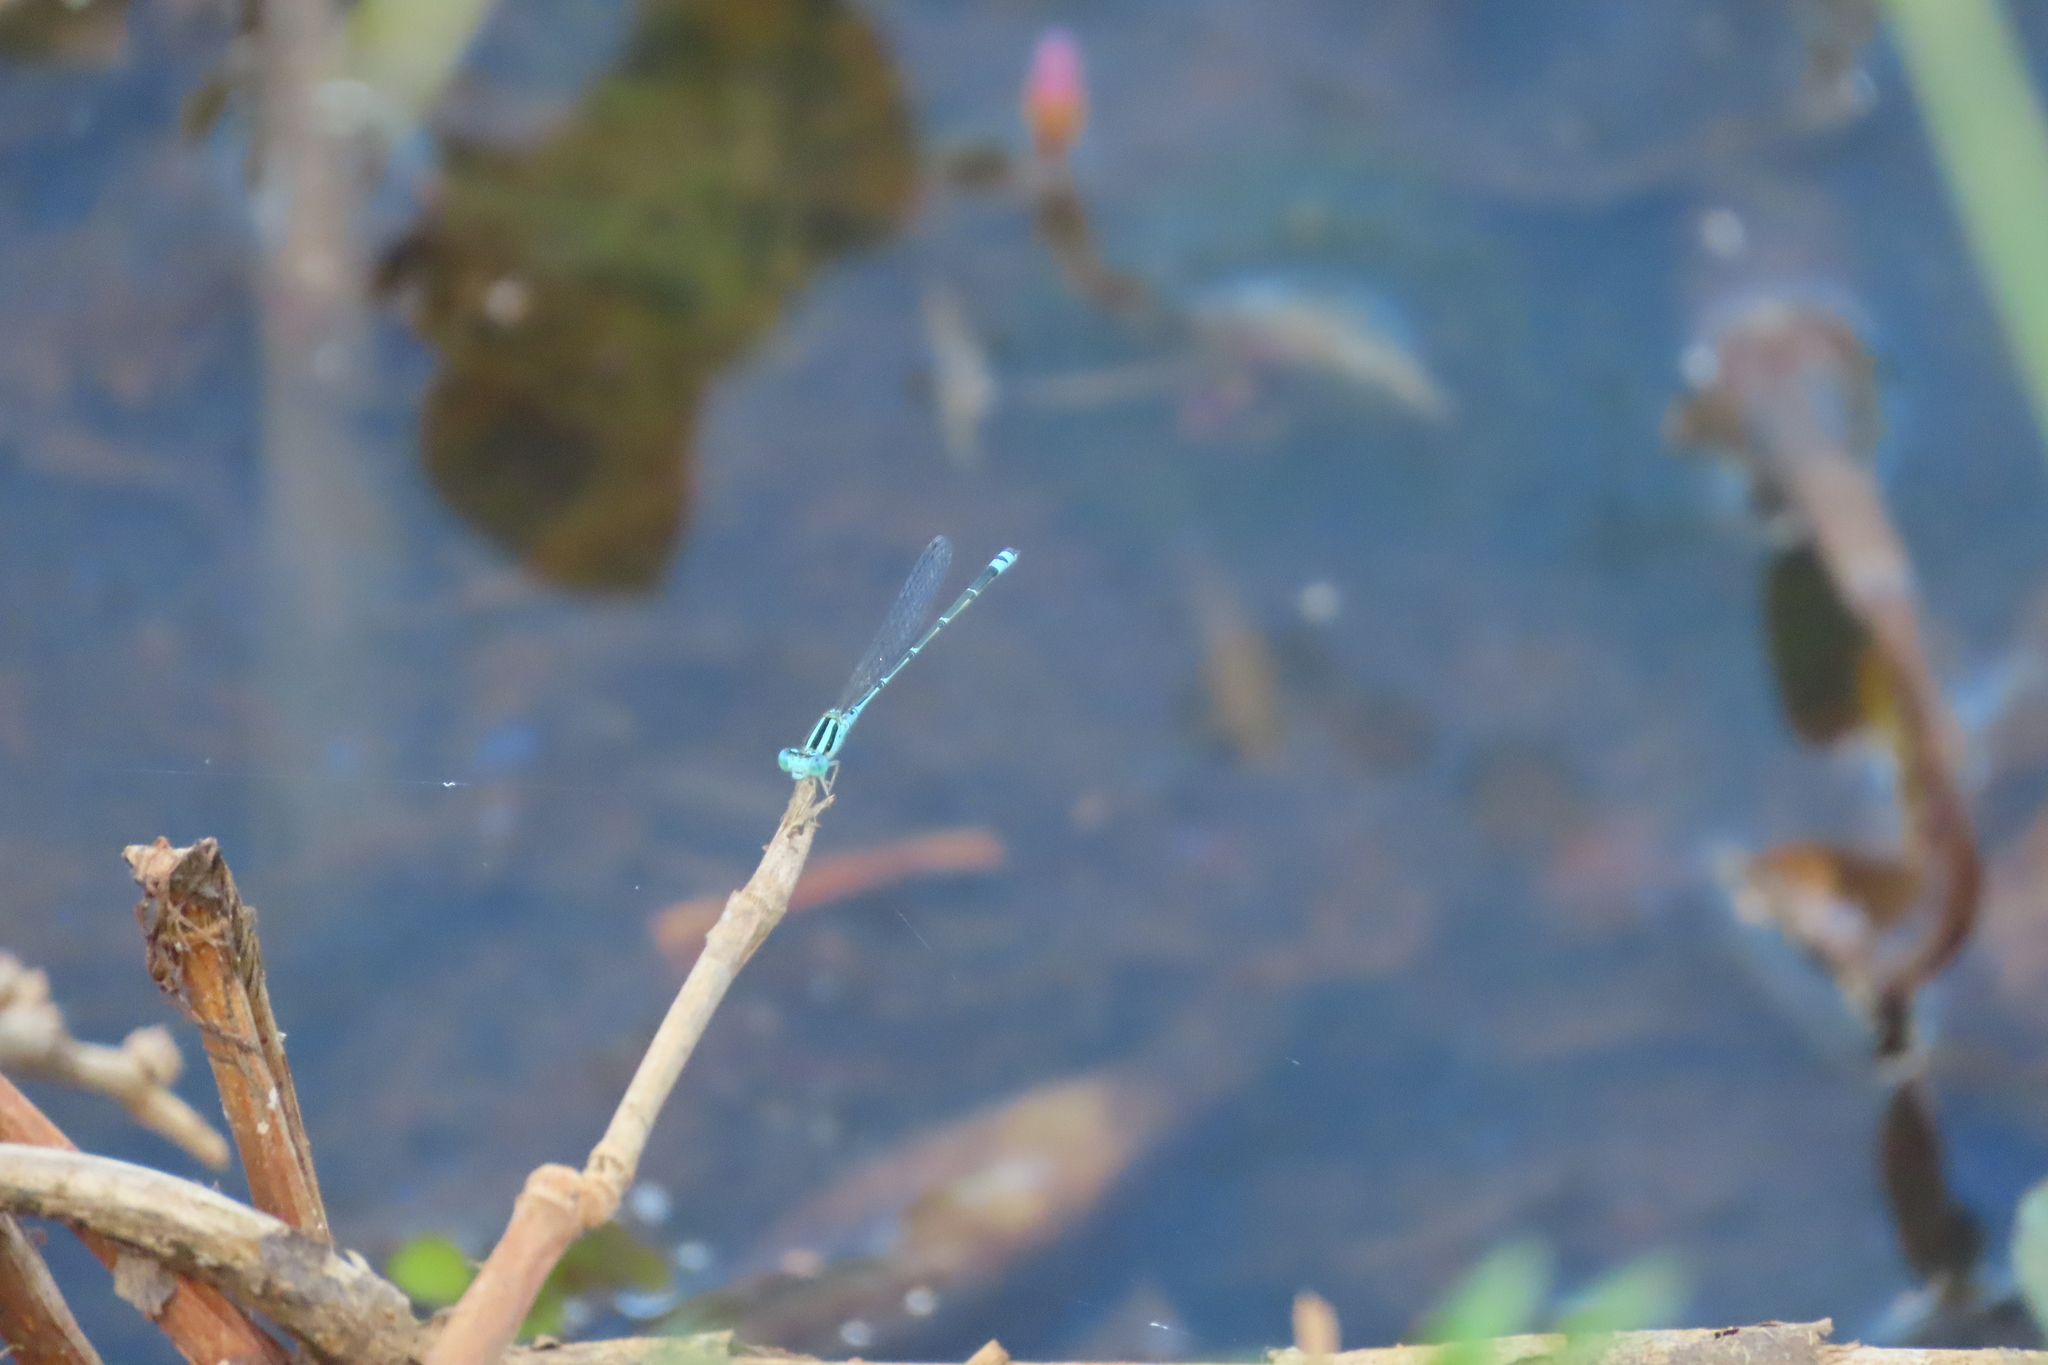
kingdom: Animalia
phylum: Arthropoda
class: Insecta
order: Odonata
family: Coenagrionidae
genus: Pseudagrion
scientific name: Pseudagrion microcephalum
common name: Blue riverdamsel
